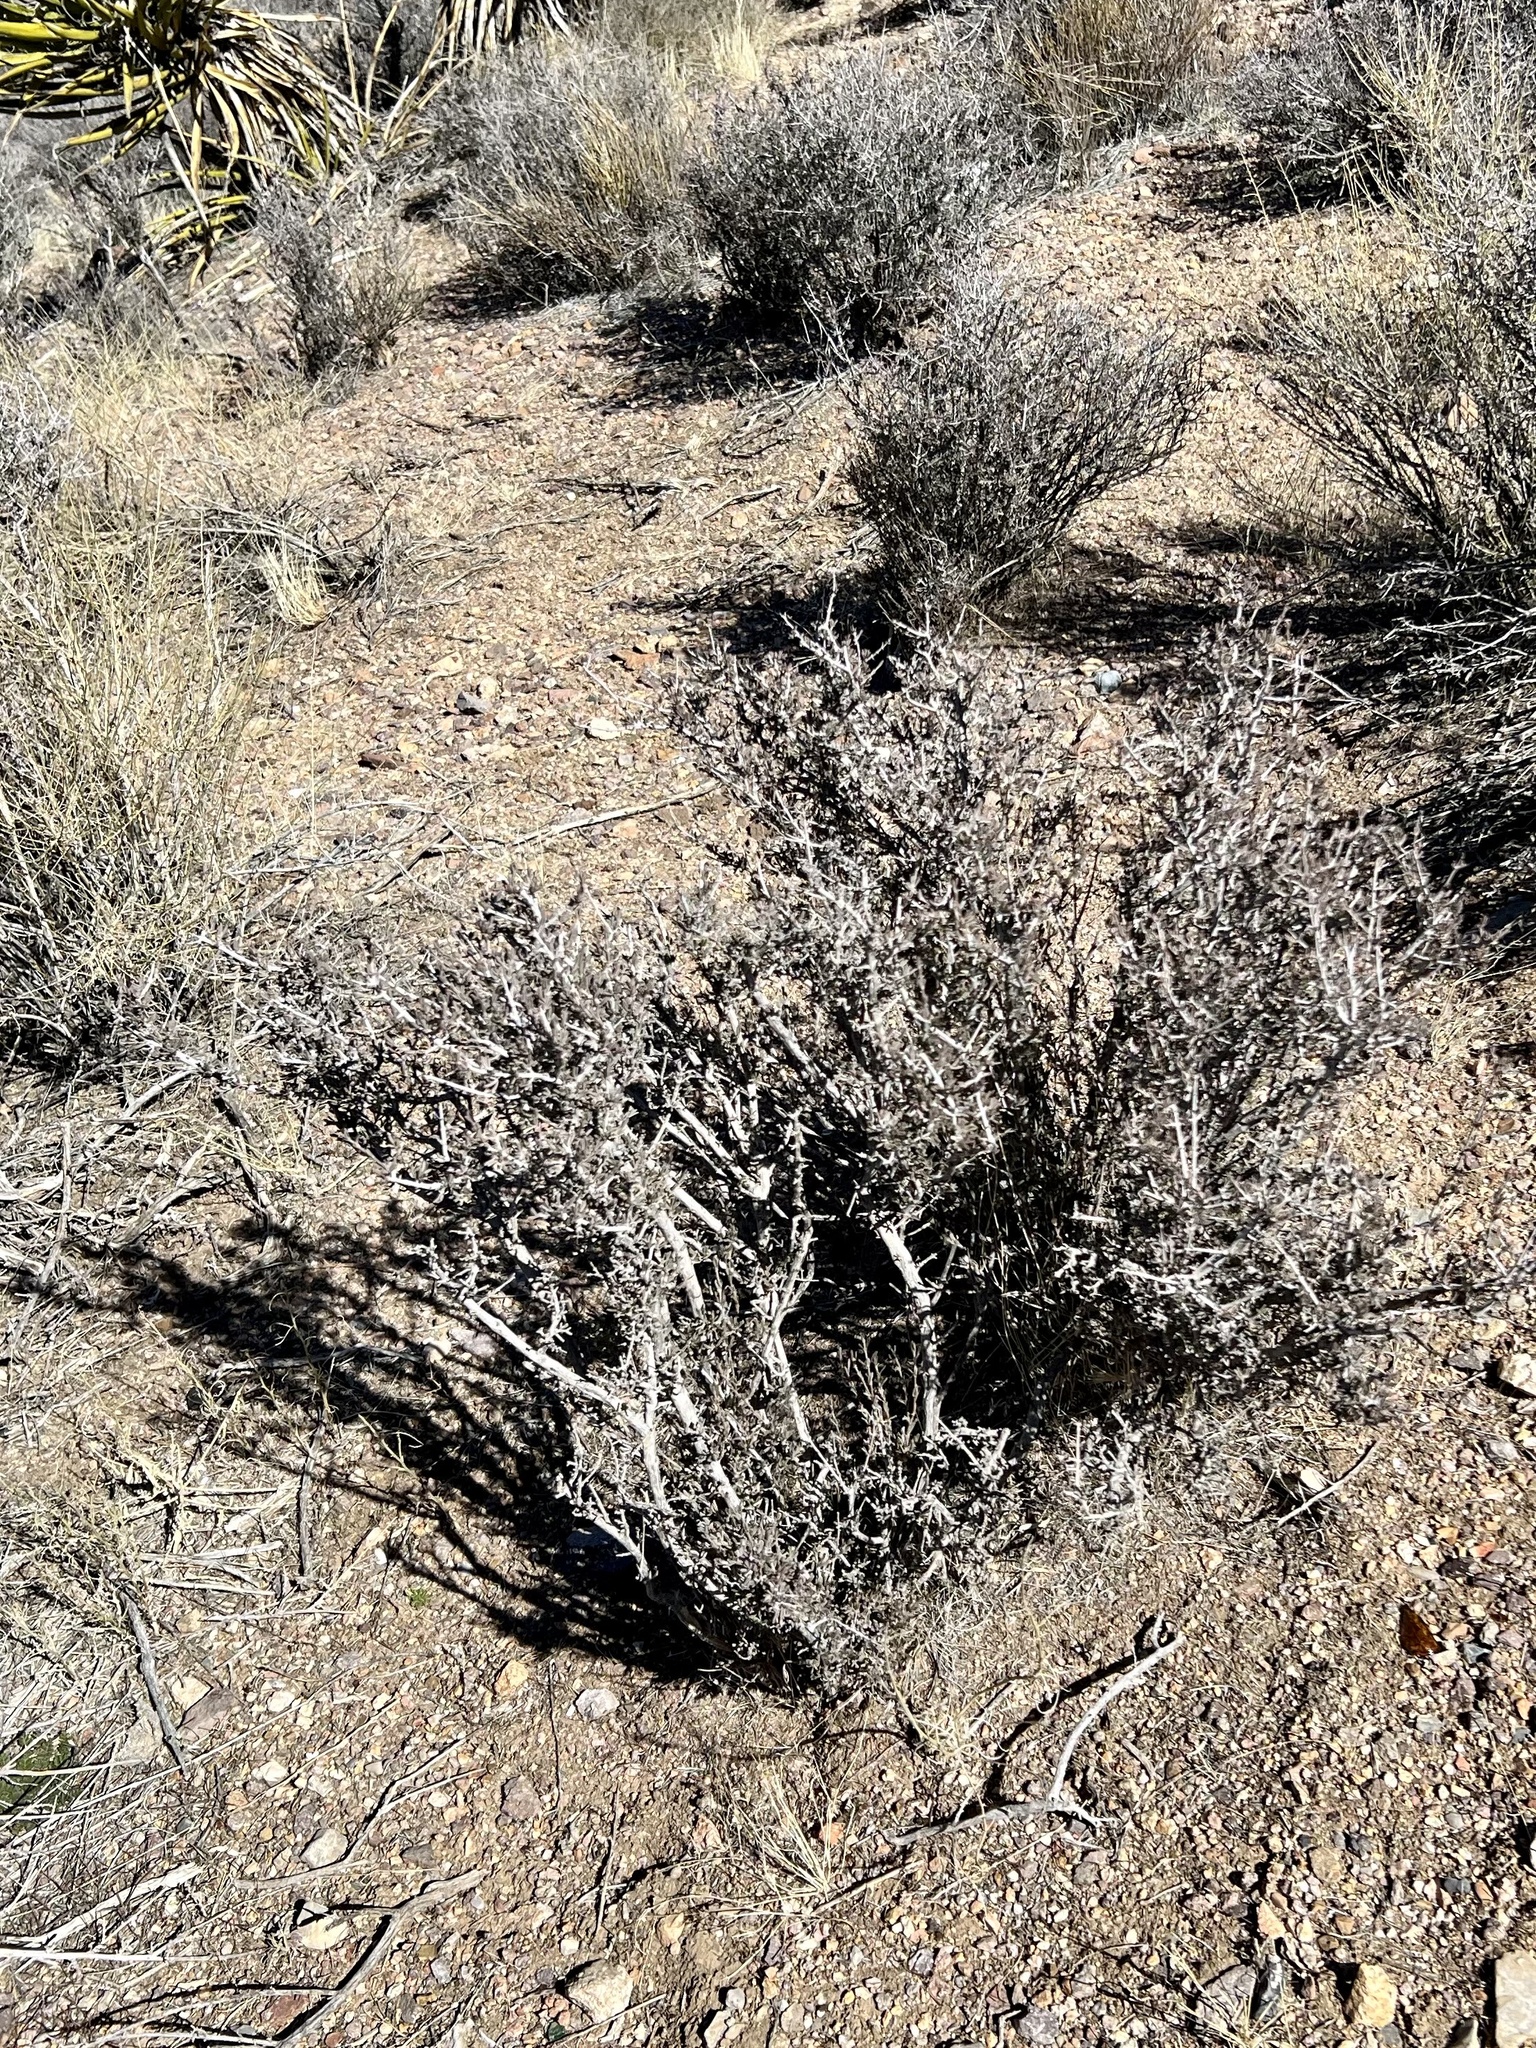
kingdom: Plantae
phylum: Tracheophyta
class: Magnoliopsida
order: Rosales
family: Rosaceae
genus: Coleogyne
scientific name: Coleogyne ramosissima
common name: Blackbrush
